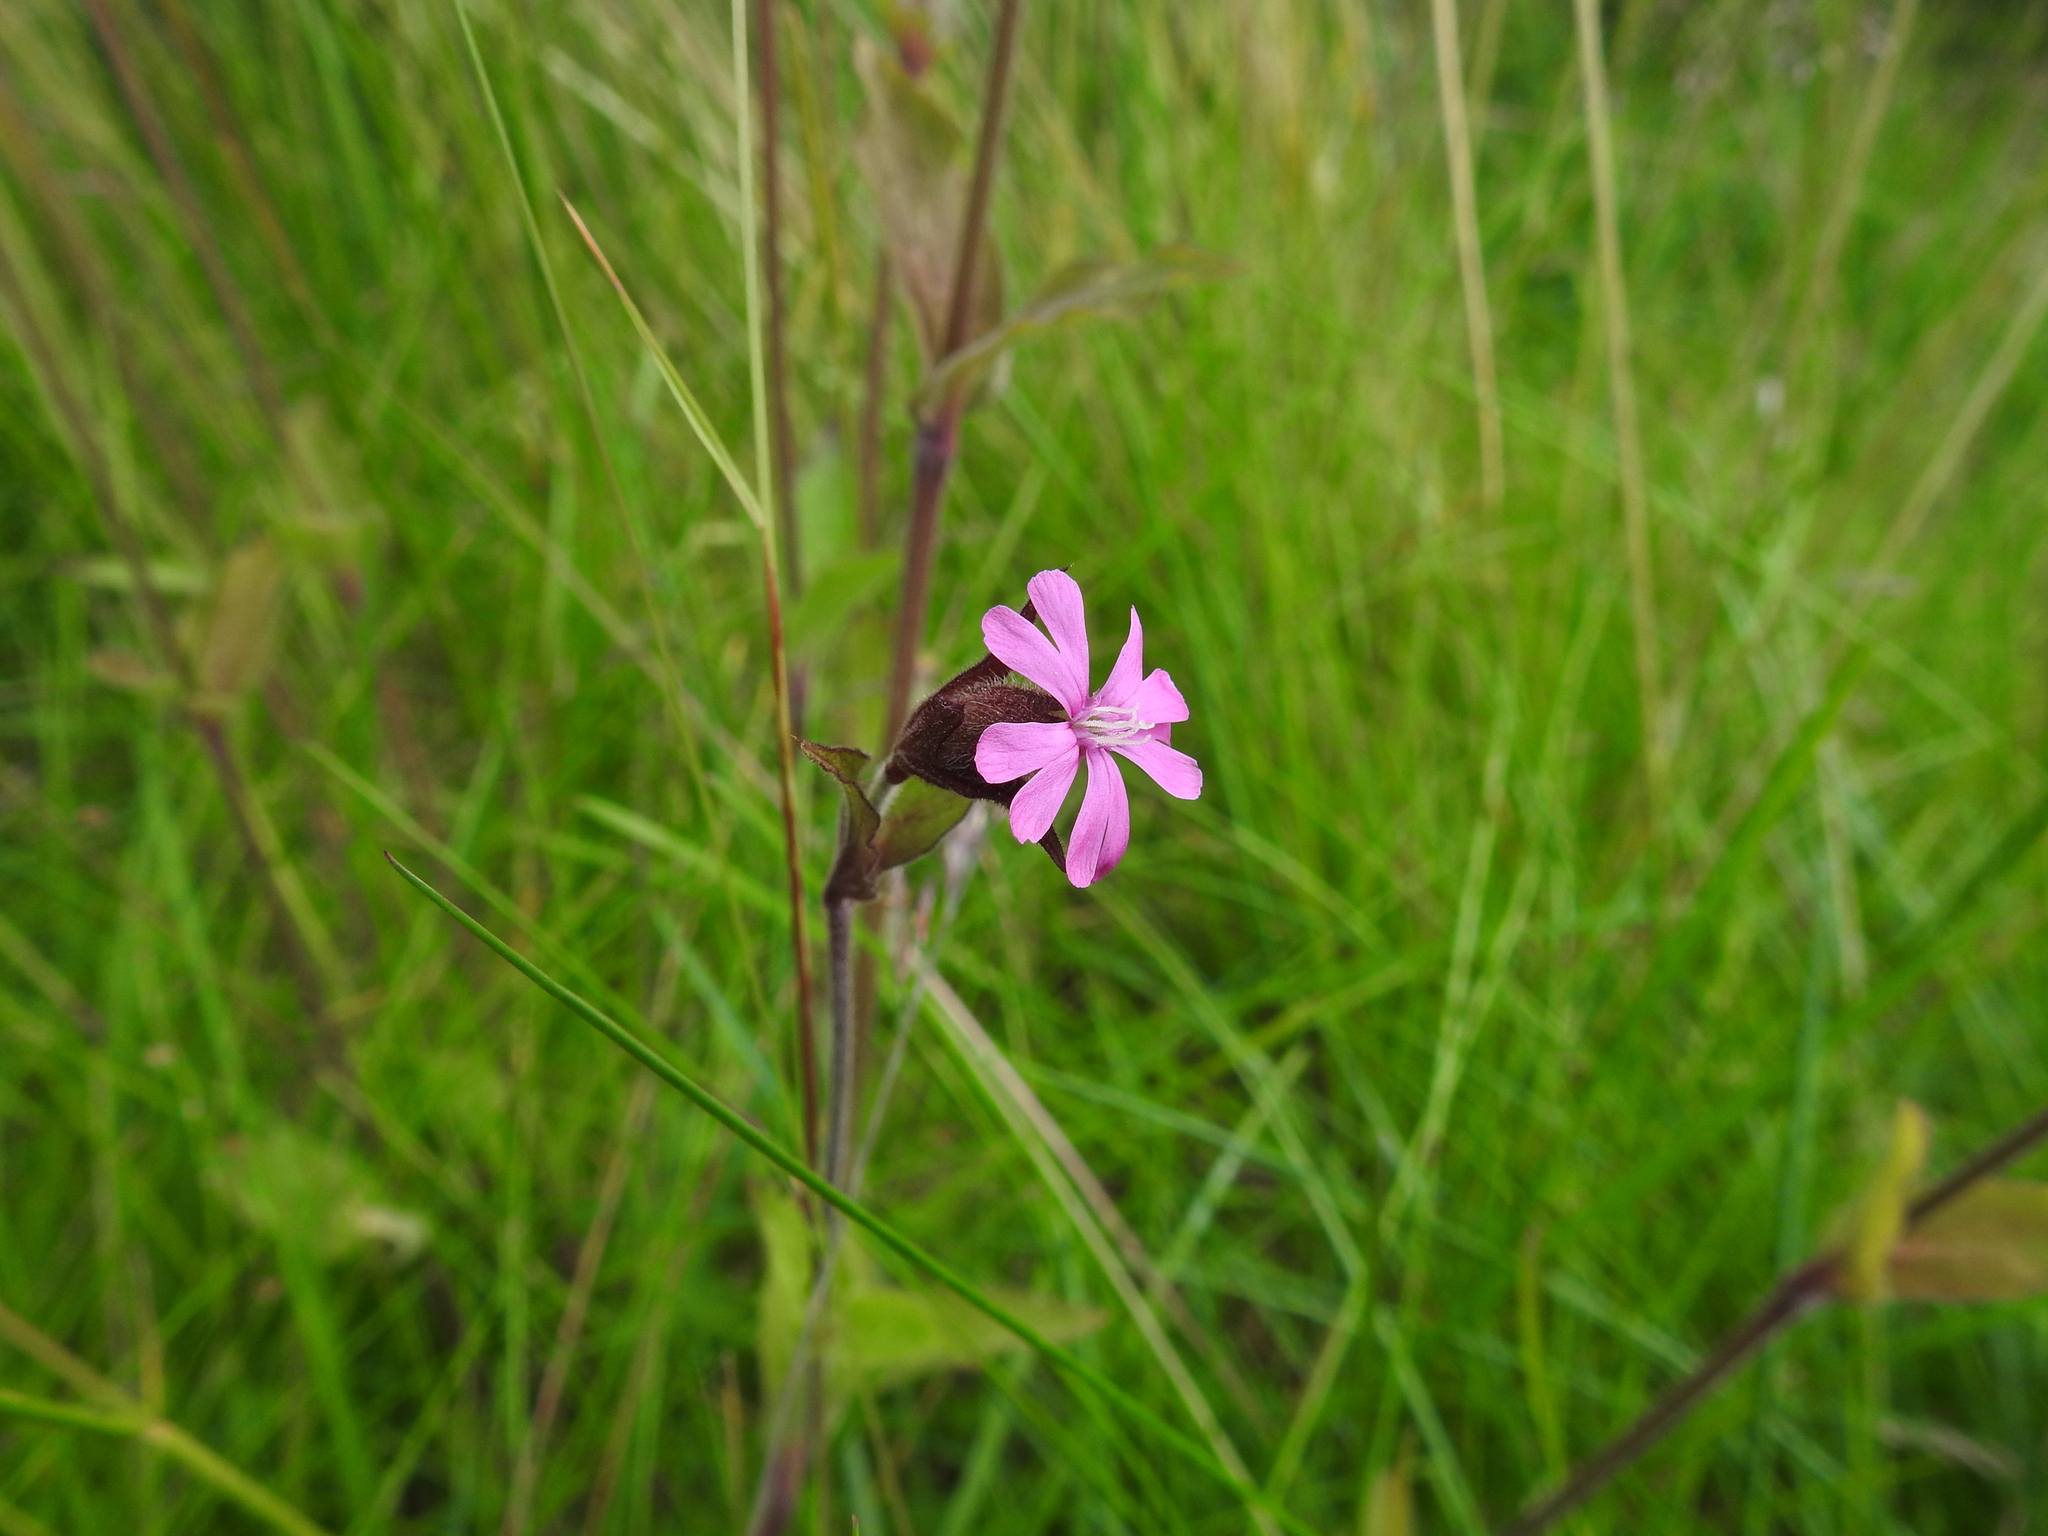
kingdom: Plantae
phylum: Tracheophyta
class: Magnoliopsida
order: Caryophyllales
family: Caryophyllaceae
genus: Silene
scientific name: Silene dioica
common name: Red campion
